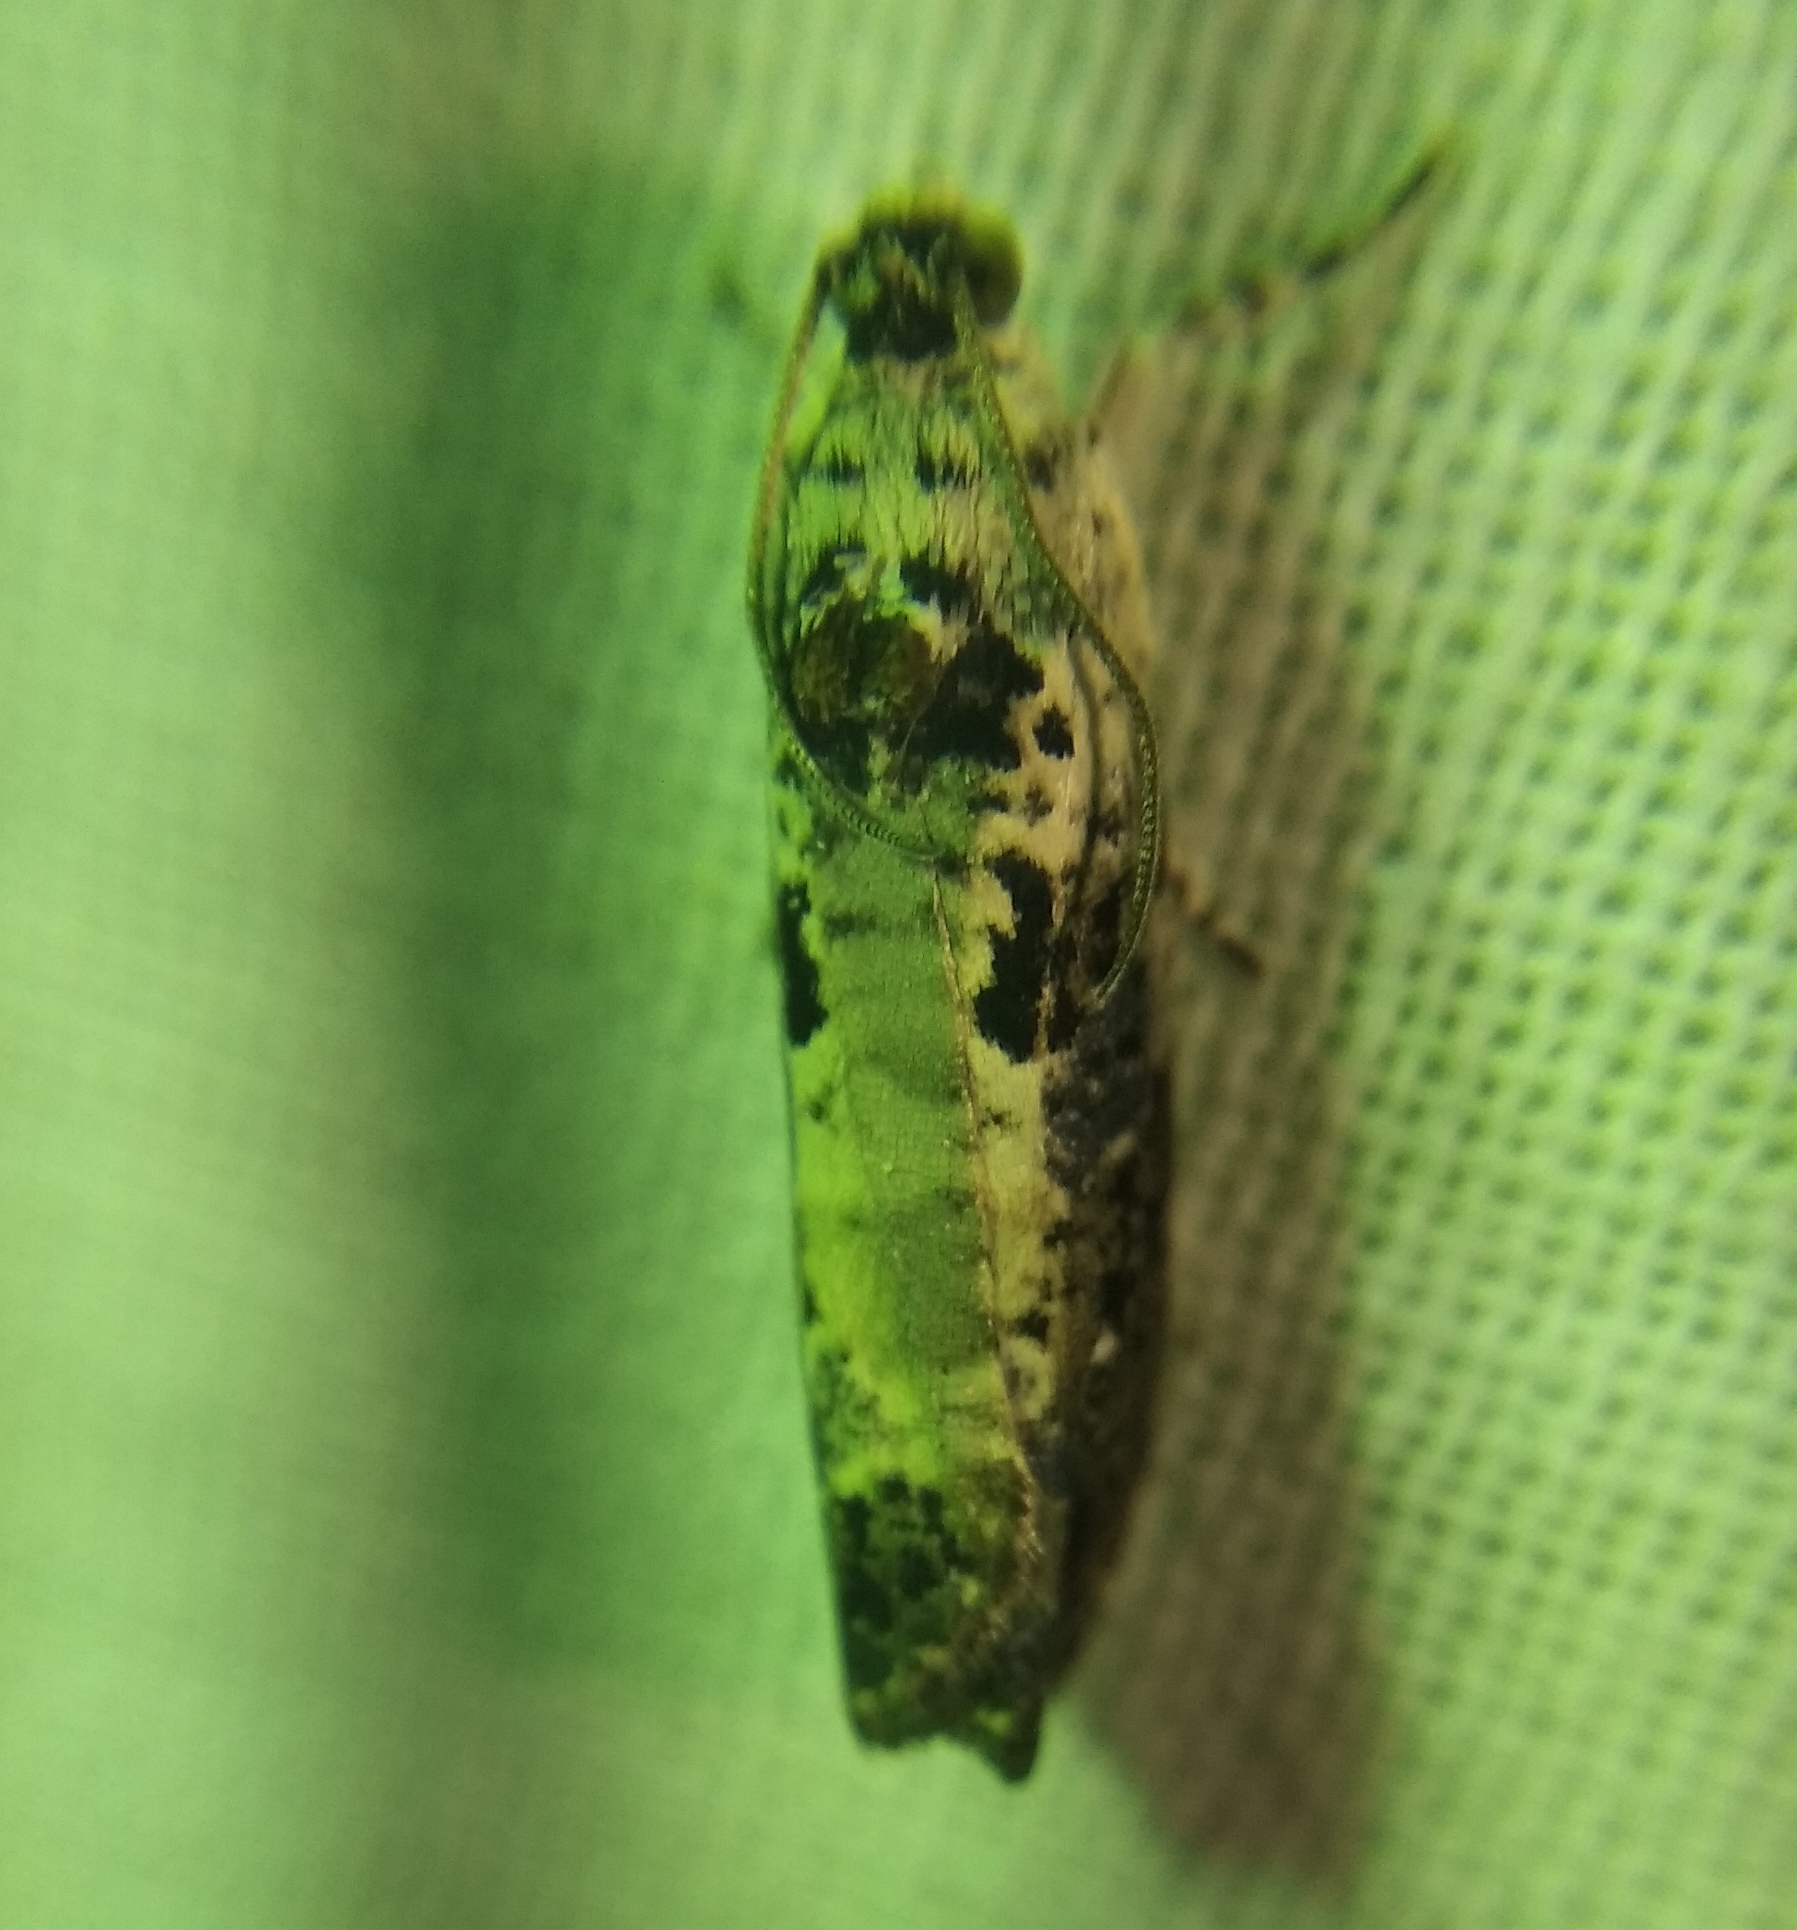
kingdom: Animalia
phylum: Arthropoda
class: Insecta
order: Lepidoptera
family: Tortricidae
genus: Hedya
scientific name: Hedya salicella
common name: Large tortricid moth
